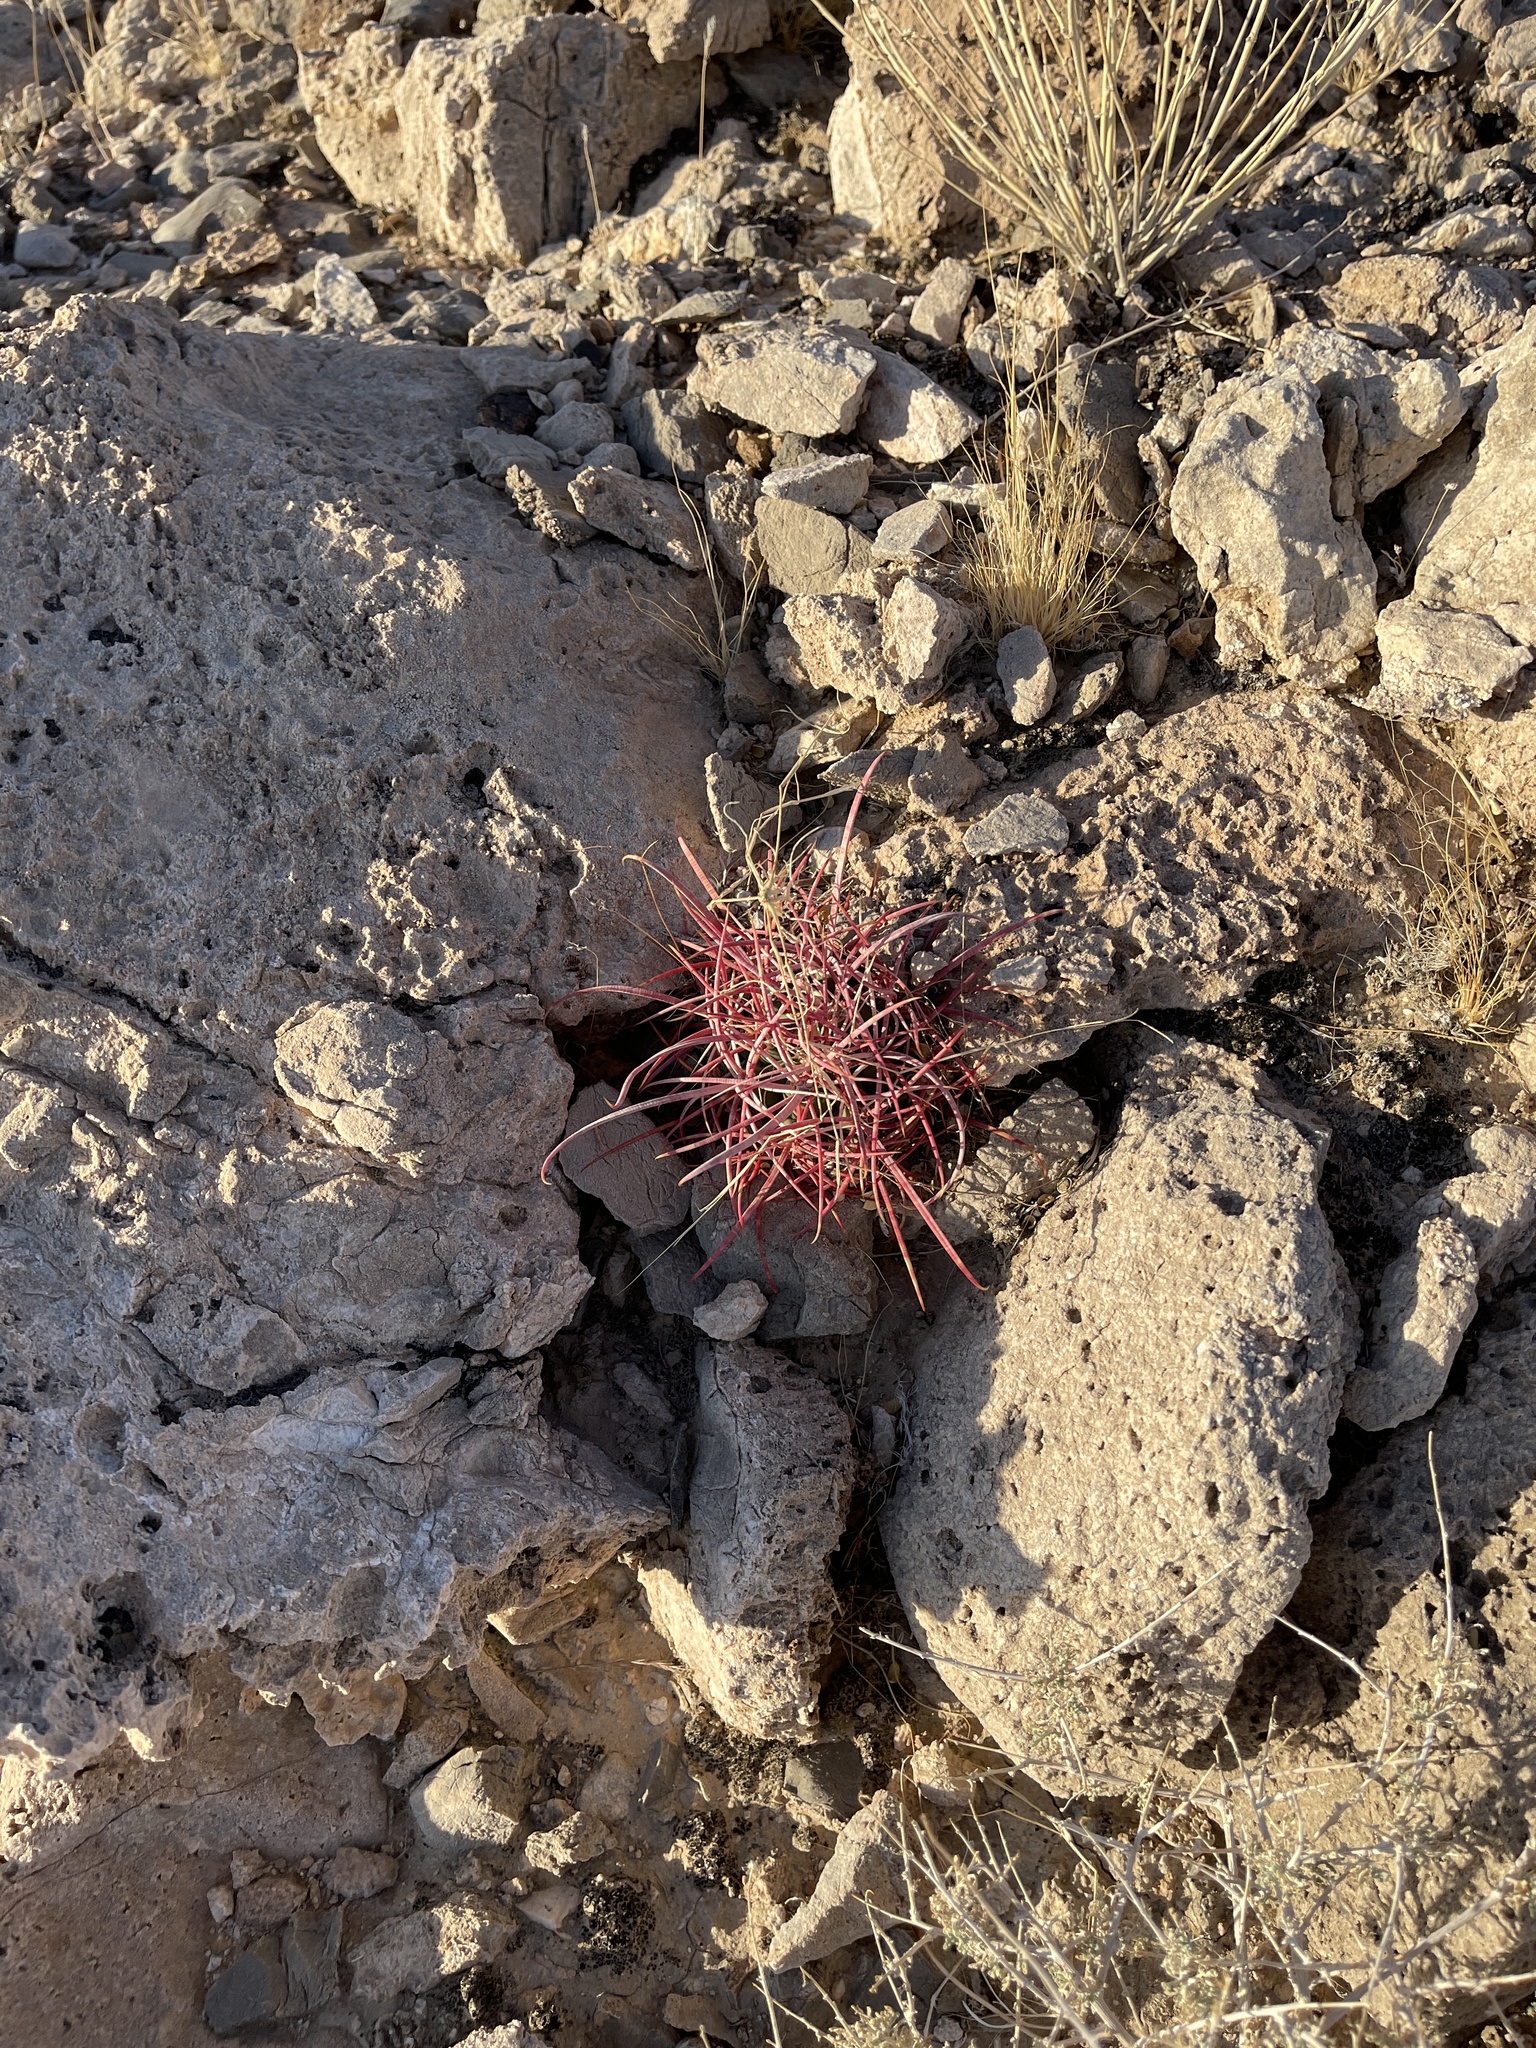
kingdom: Plantae
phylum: Tracheophyta
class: Magnoliopsida
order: Caryophyllales
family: Cactaceae
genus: Ferocactus
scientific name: Ferocactus cylindraceus
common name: California barrel cactus
